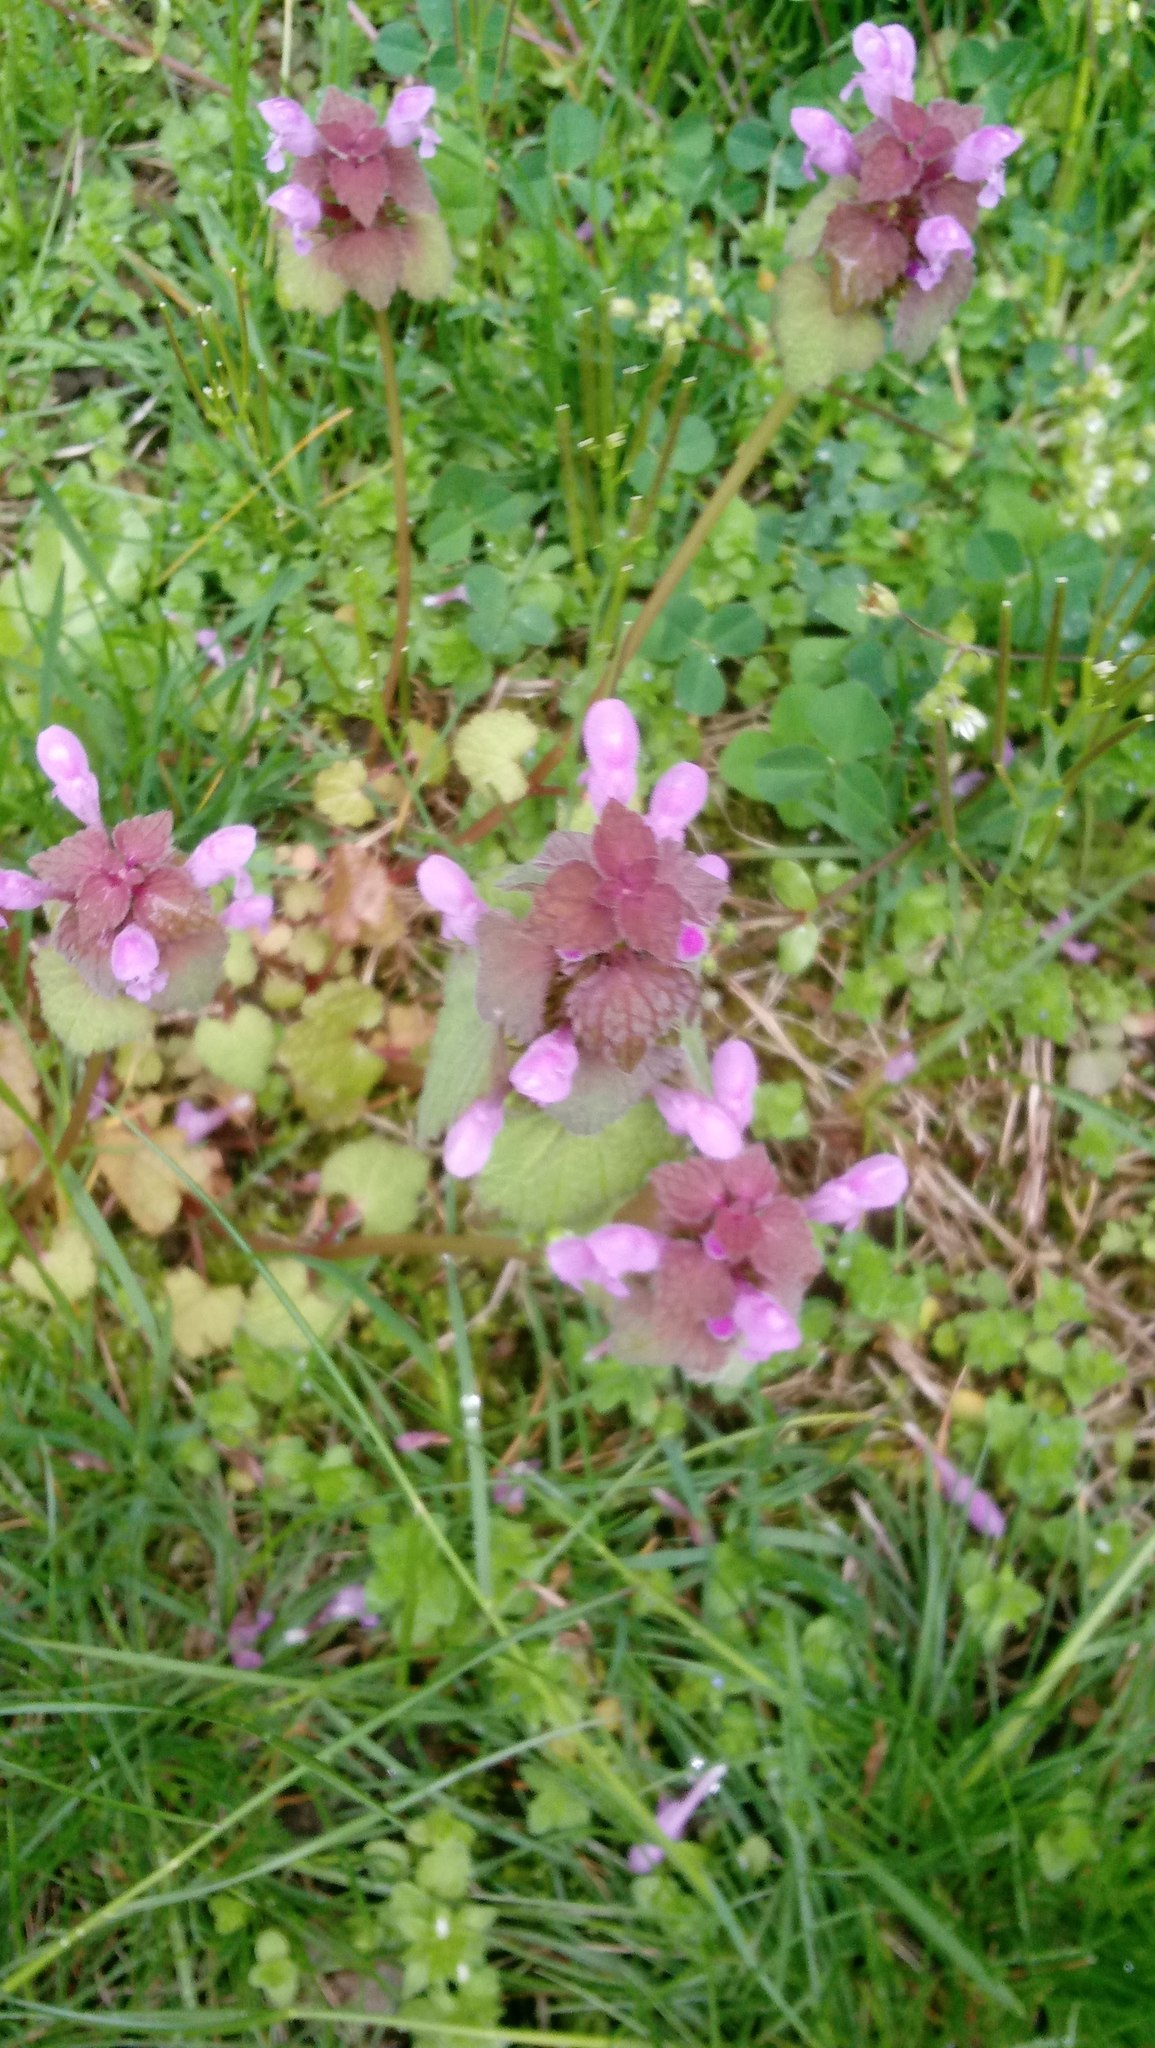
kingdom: Plantae
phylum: Tracheophyta
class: Magnoliopsida
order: Lamiales
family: Lamiaceae
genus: Lamium
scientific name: Lamium purpureum
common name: Red dead-nettle
